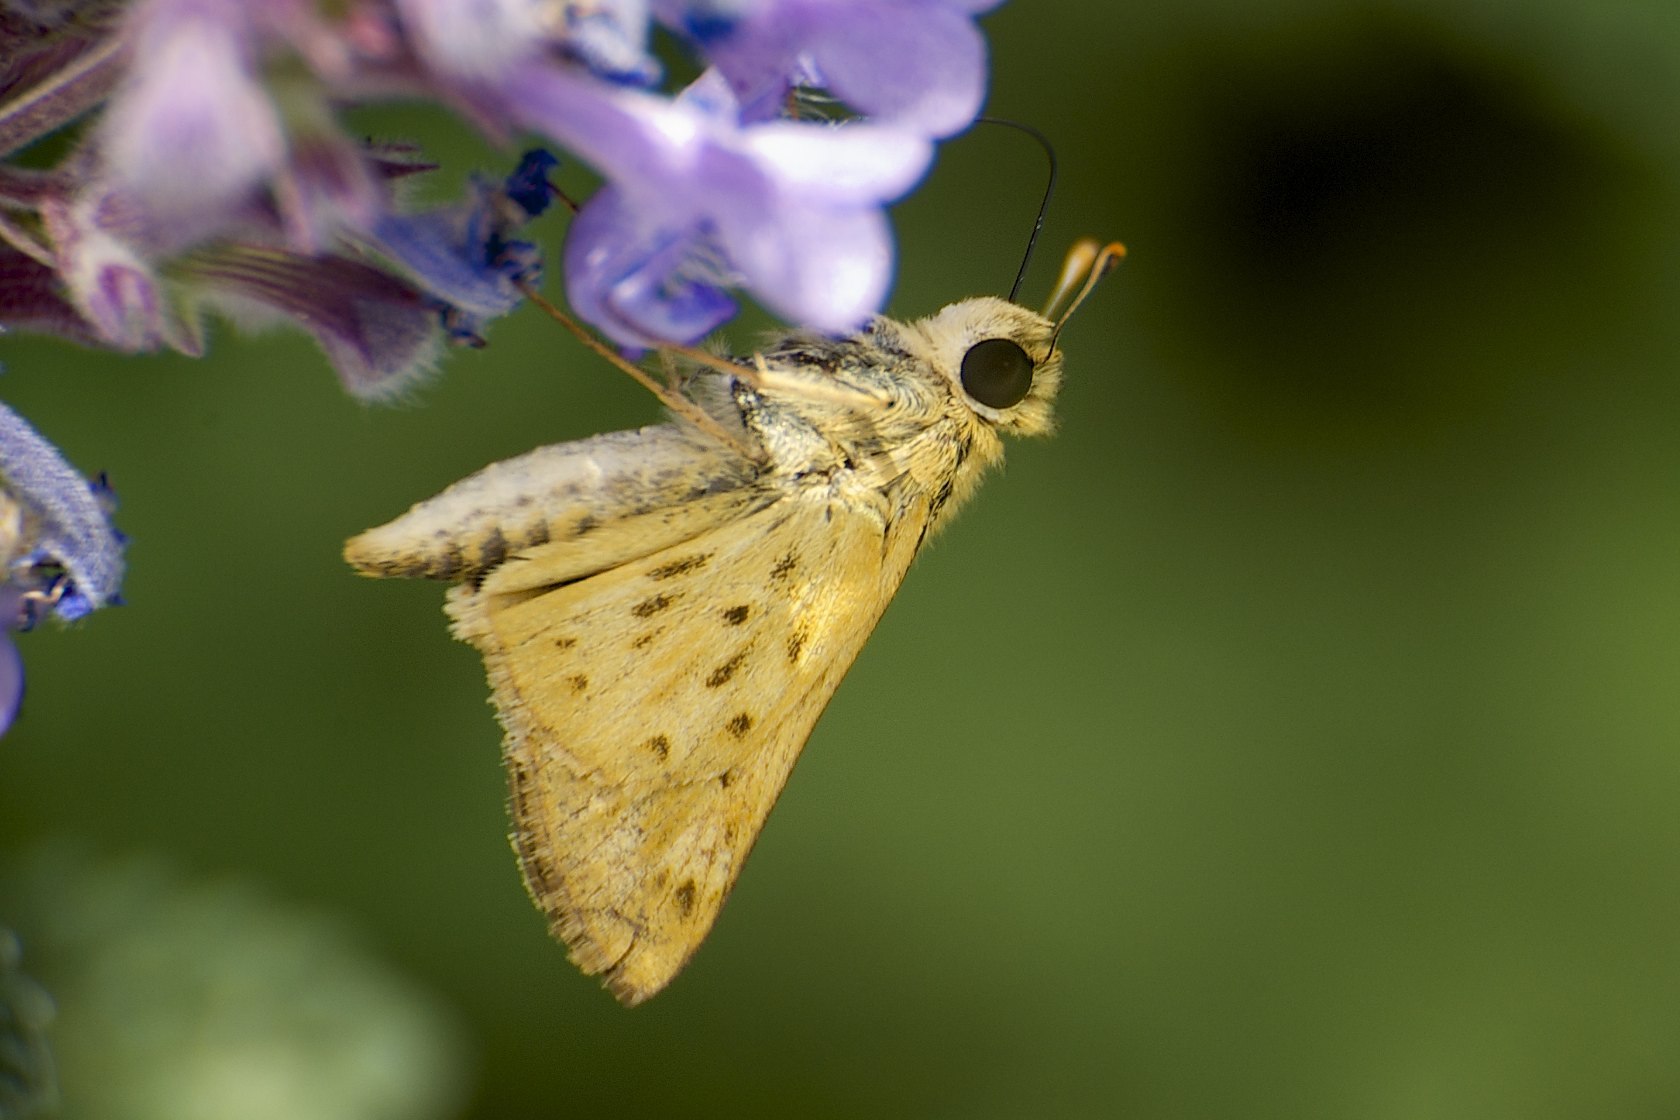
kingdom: Animalia
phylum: Arthropoda
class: Insecta
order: Lepidoptera
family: Hesperiidae
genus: Hylephila
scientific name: Hylephila phyleus
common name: Fiery skipper
